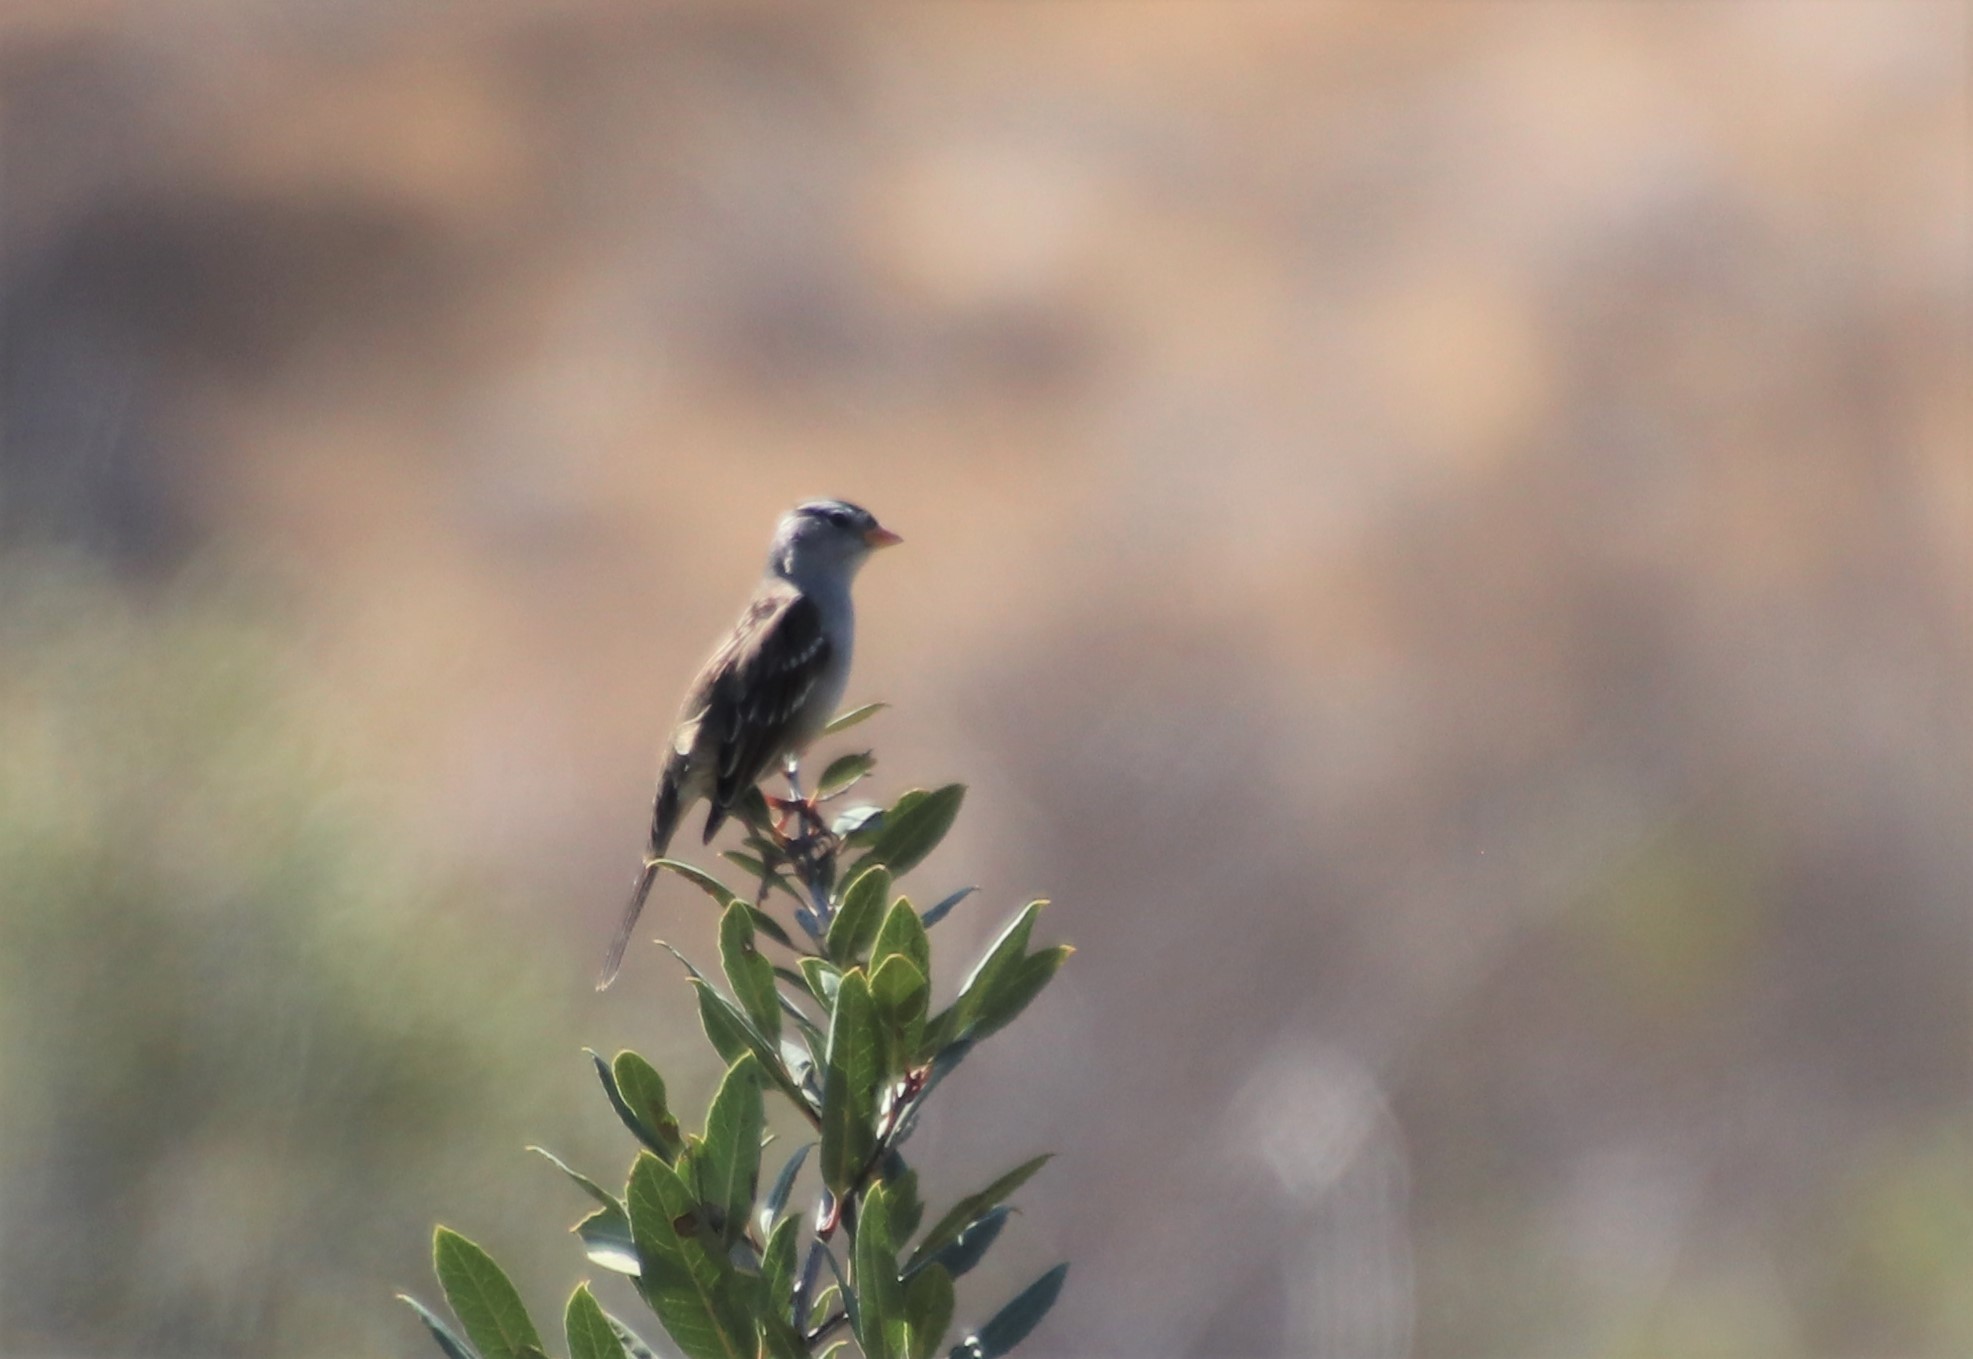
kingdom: Animalia
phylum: Chordata
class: Aves
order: Passeriformes
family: Passerellidae
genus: Zonotrichia
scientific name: Zonotrichia leucophrys
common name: White-crowned sparrow
